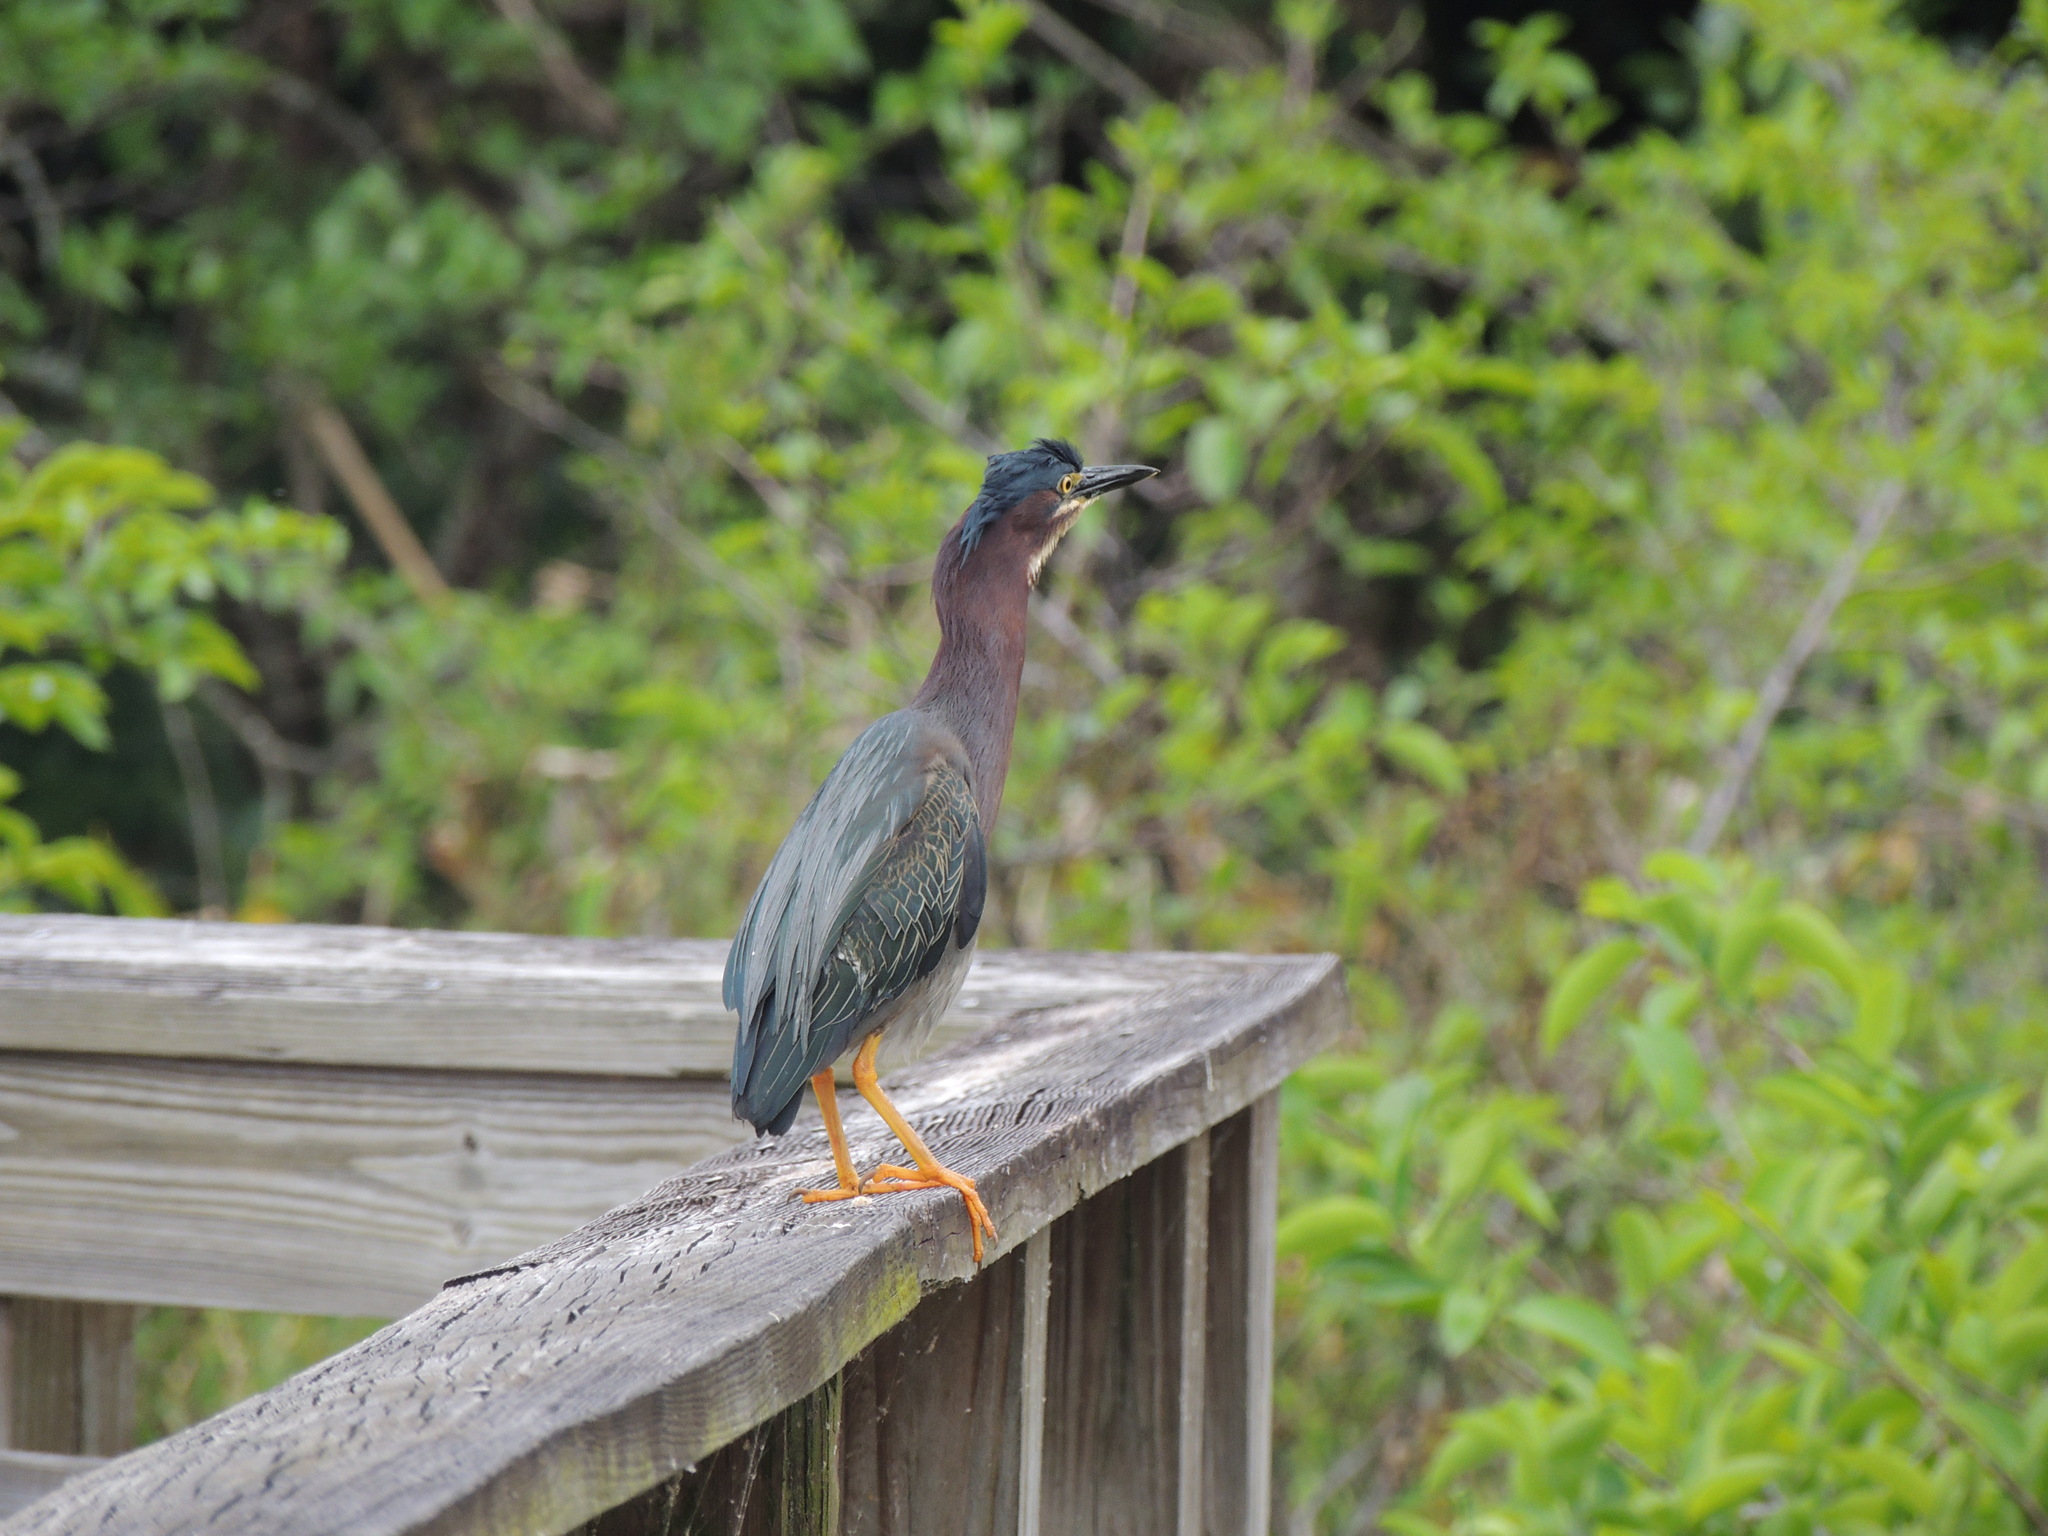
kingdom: Animalia
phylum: Chordata
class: Aves
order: Pelecaniformes
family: Ardeidae
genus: Butorides
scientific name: Butorides virescens
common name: Green heron
